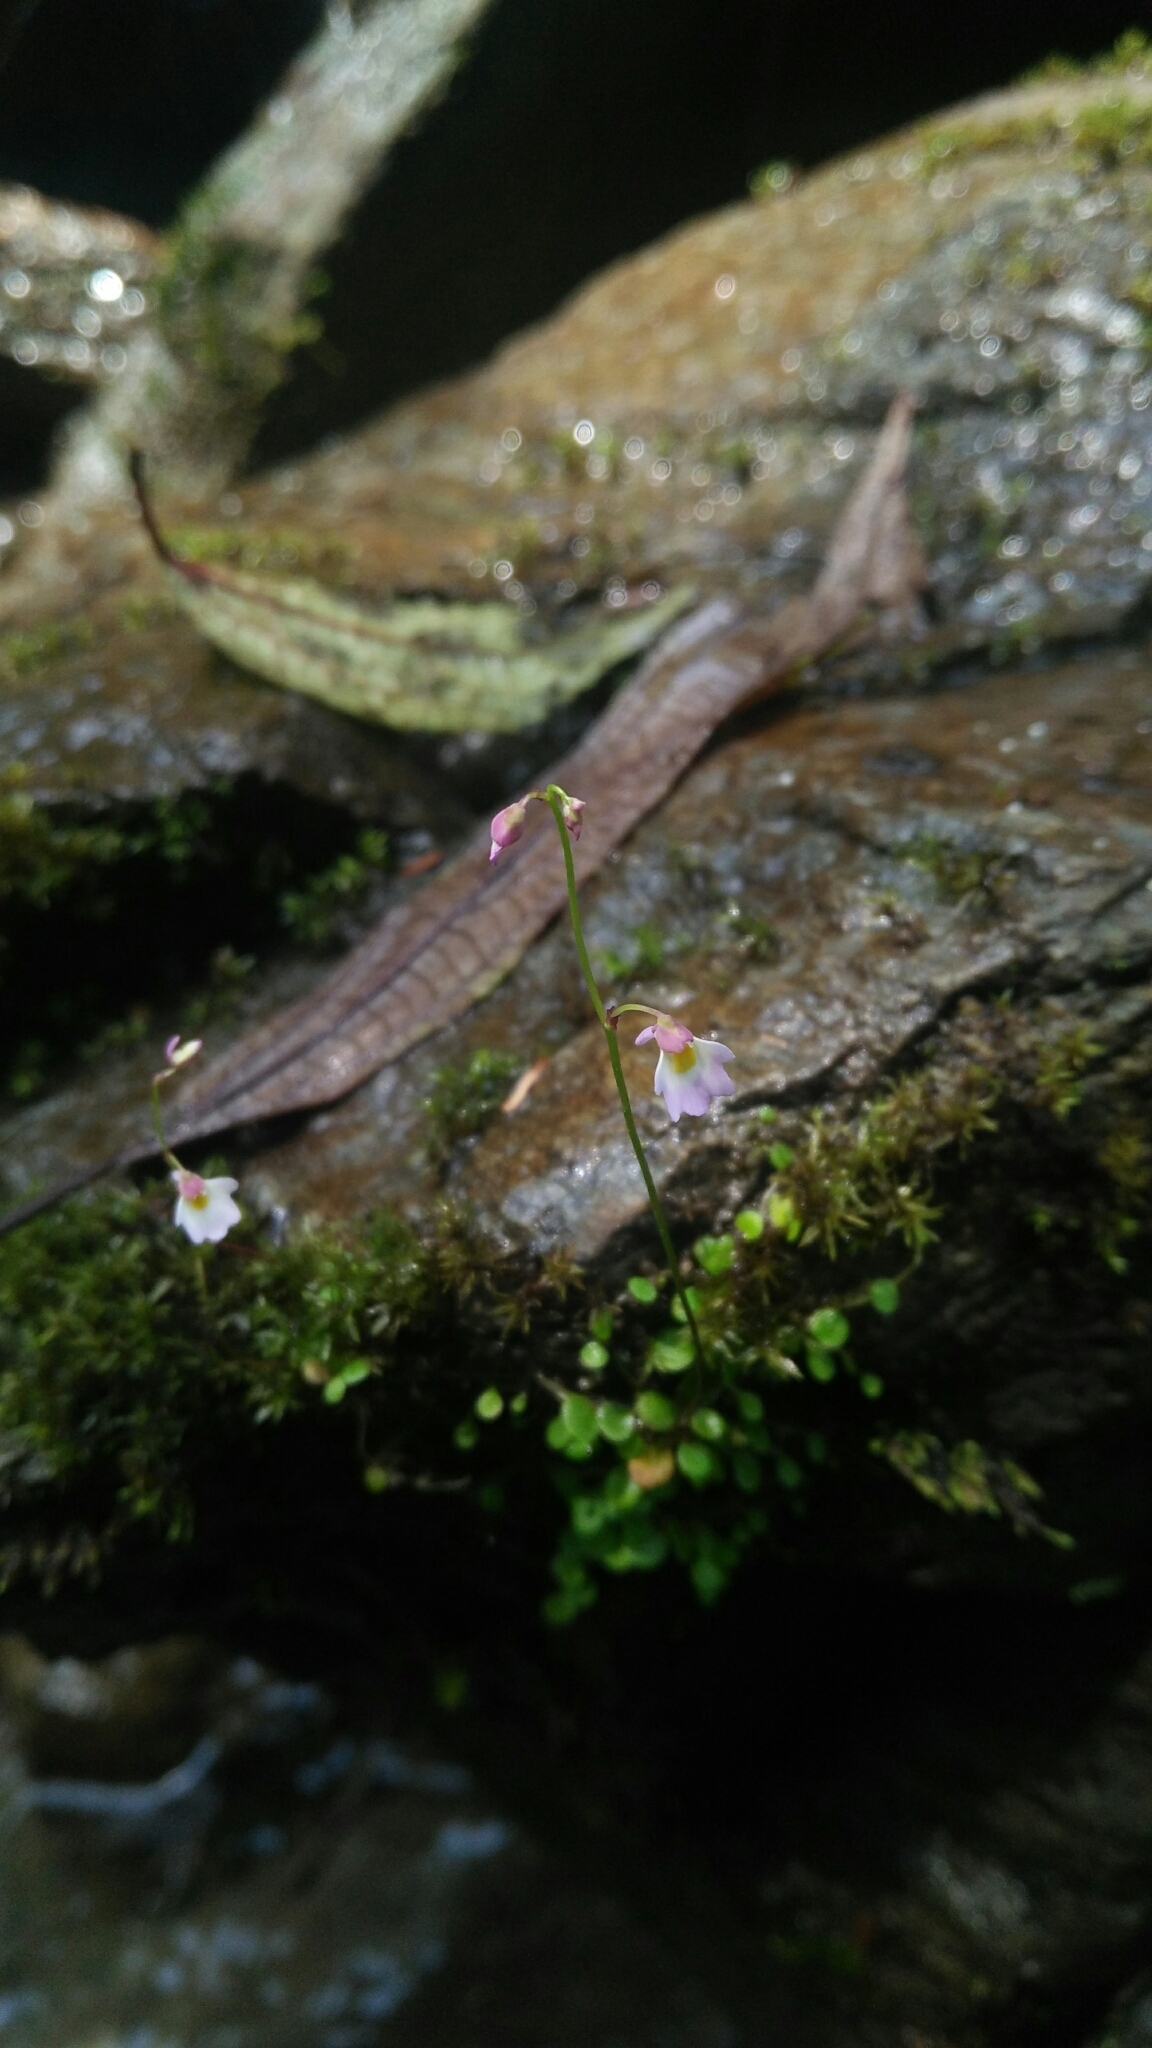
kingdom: Plantae
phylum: Tracheophyta
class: Magnoliopsida
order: Lamiales
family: Lentibulariaceae
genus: Utricularia
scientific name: Utricularia striatula
